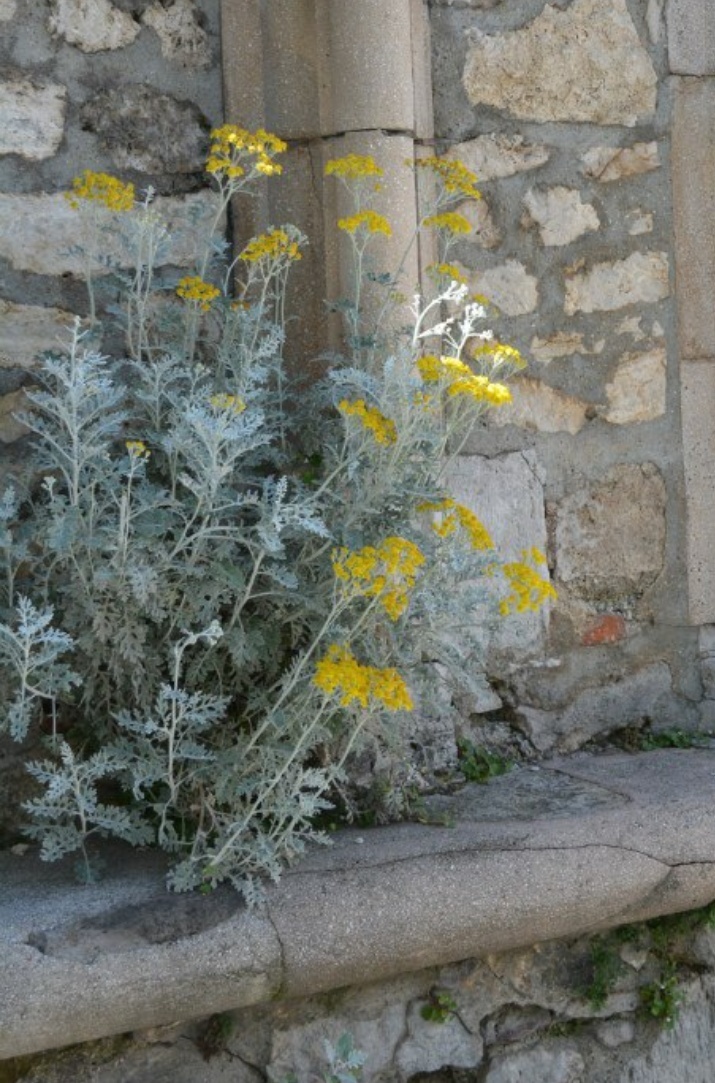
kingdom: Plantae
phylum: Tracheophyta
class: Magnoliopsida
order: Asterales
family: Asteraceae
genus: Jacobaea
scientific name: Jacobaea maritima
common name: Silver ragwort
